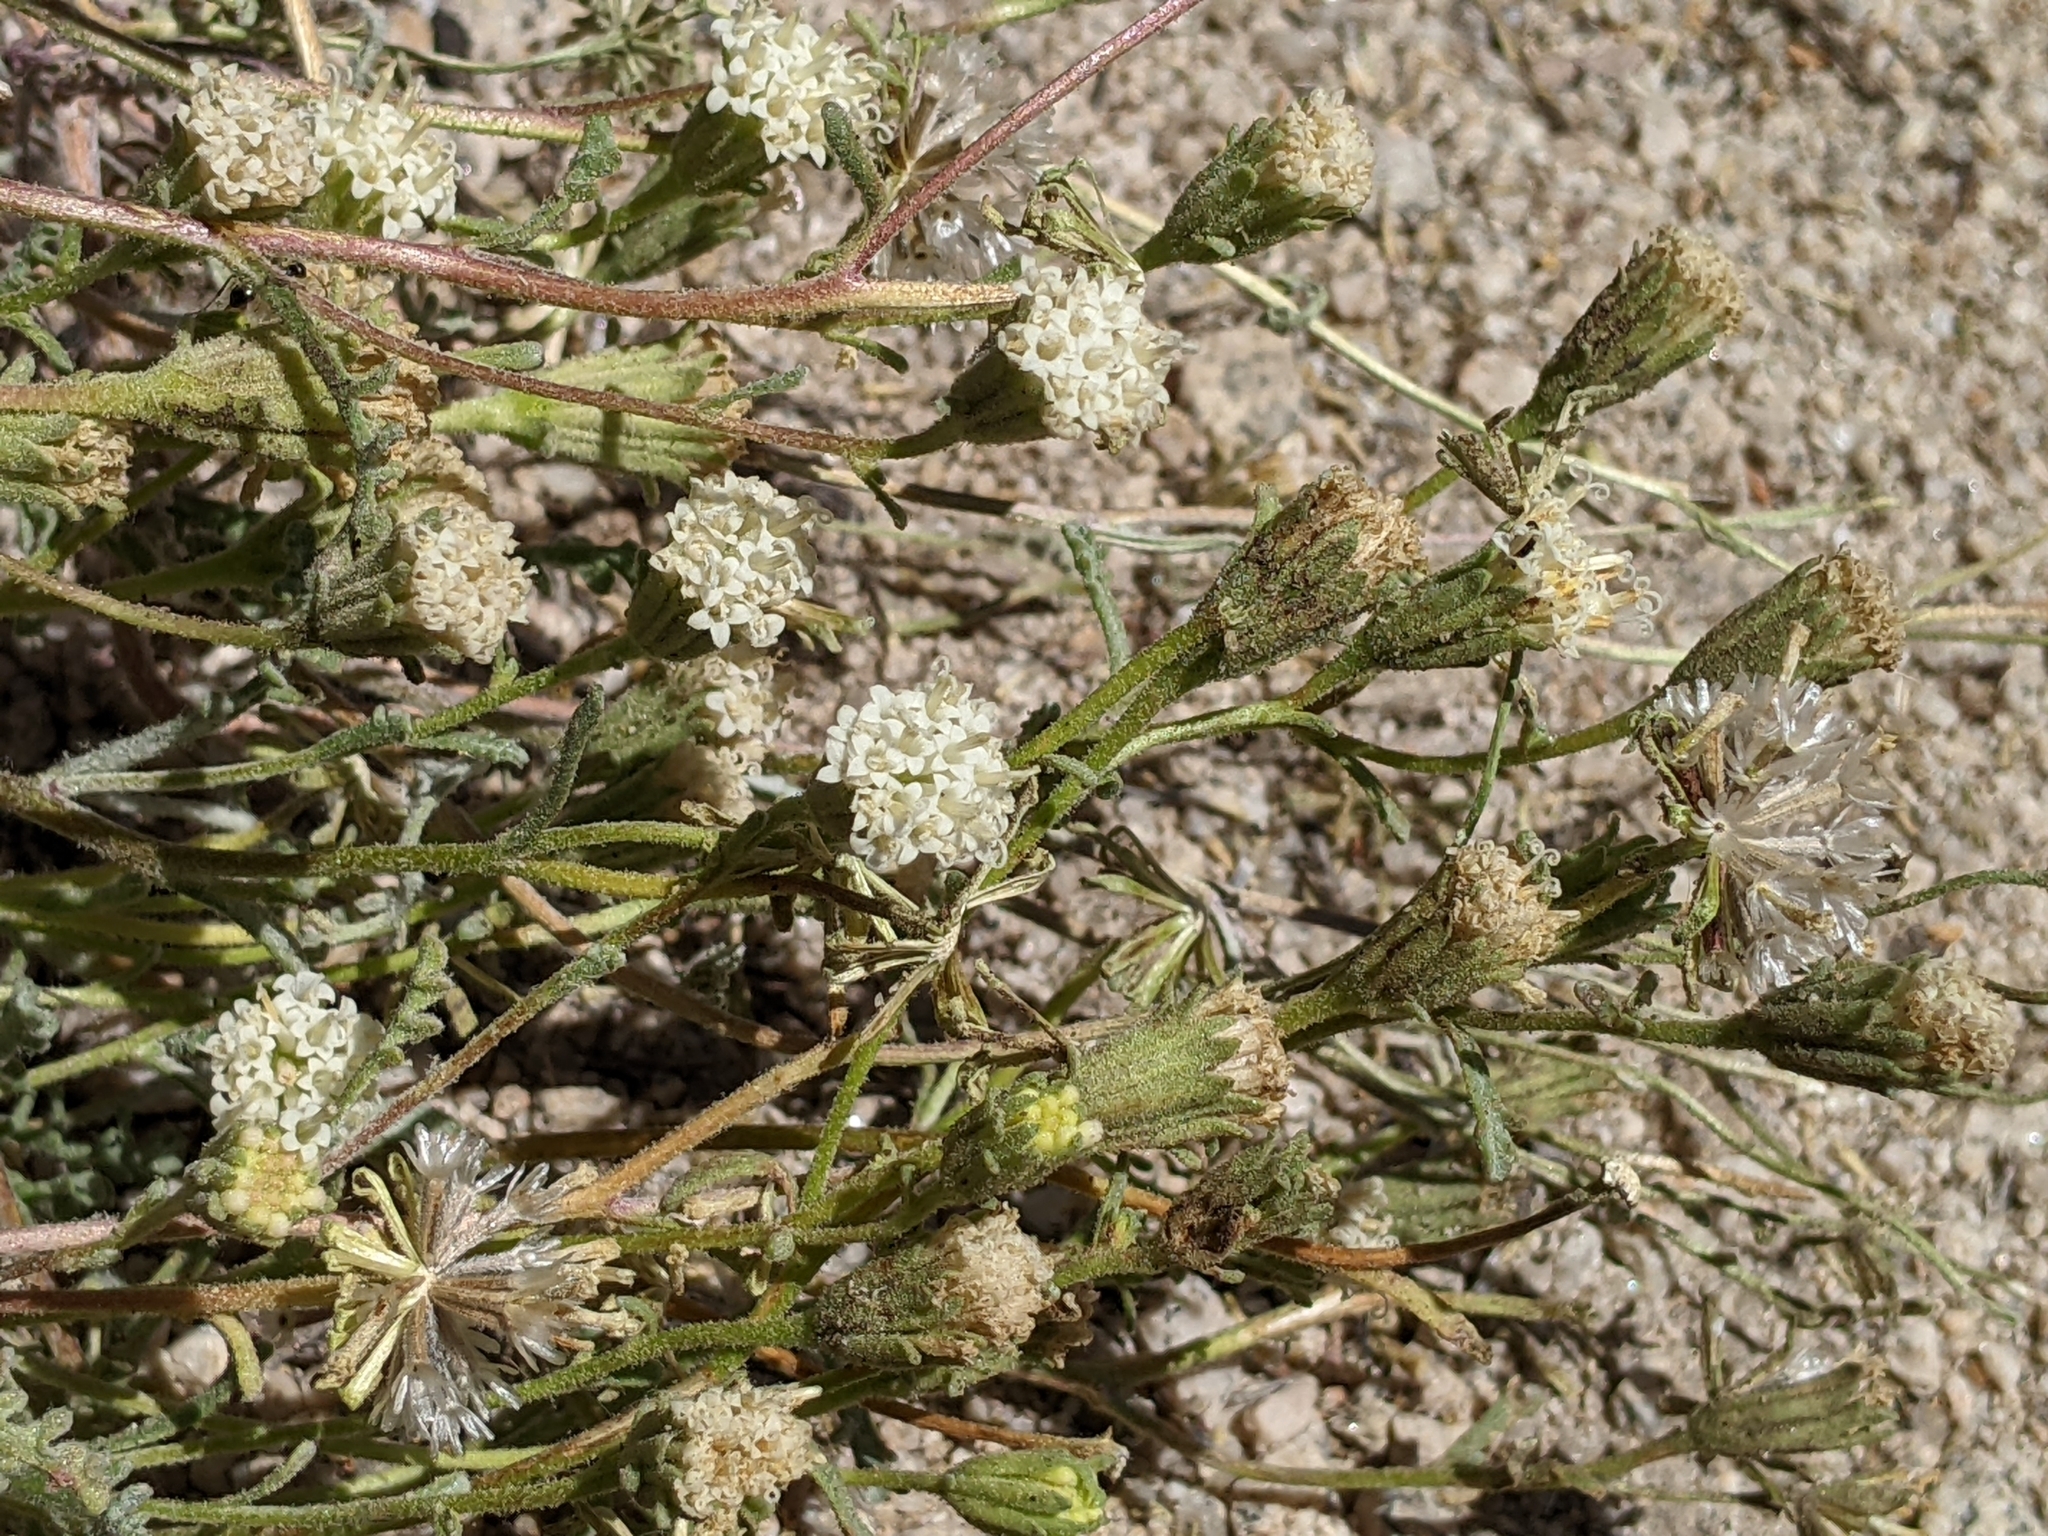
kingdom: Plantae
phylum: Tracheophyta
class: Magnoliopsida
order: Asterales
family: Asteraceae
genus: Chaenactis
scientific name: Chaenactis douglasii
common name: Hoary pincushion
